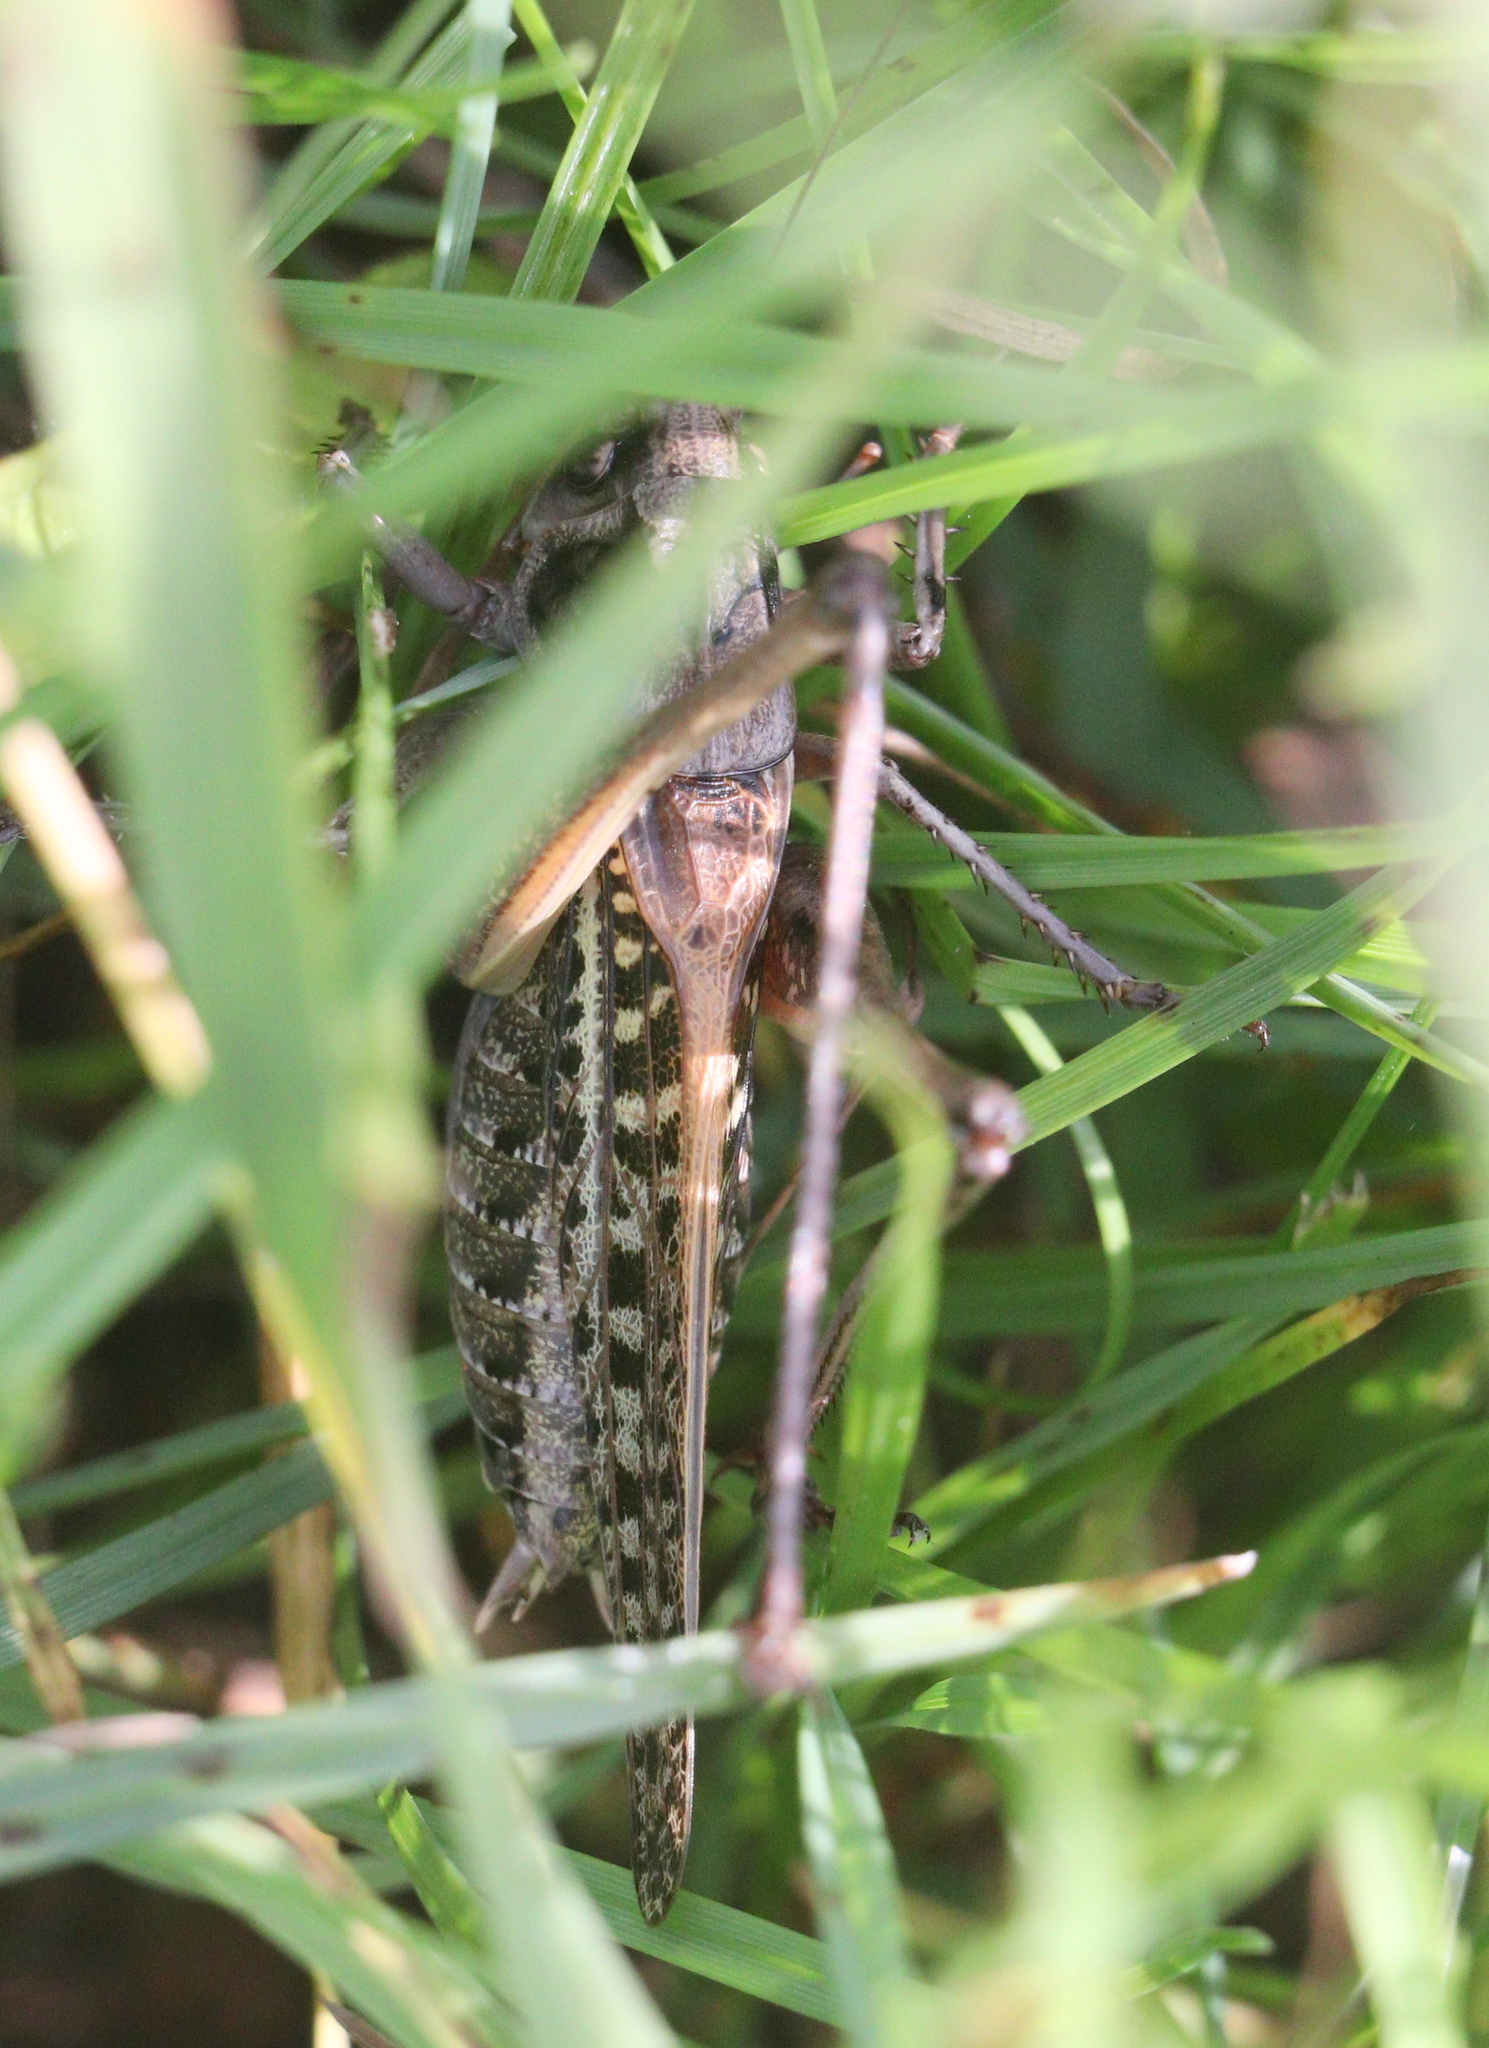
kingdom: Animalia
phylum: Arthropoda
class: Insecta
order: Orthoptera
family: Tettigoniidae
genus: Decticus
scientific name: Decticus verrucivorus
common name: Wart-biter
